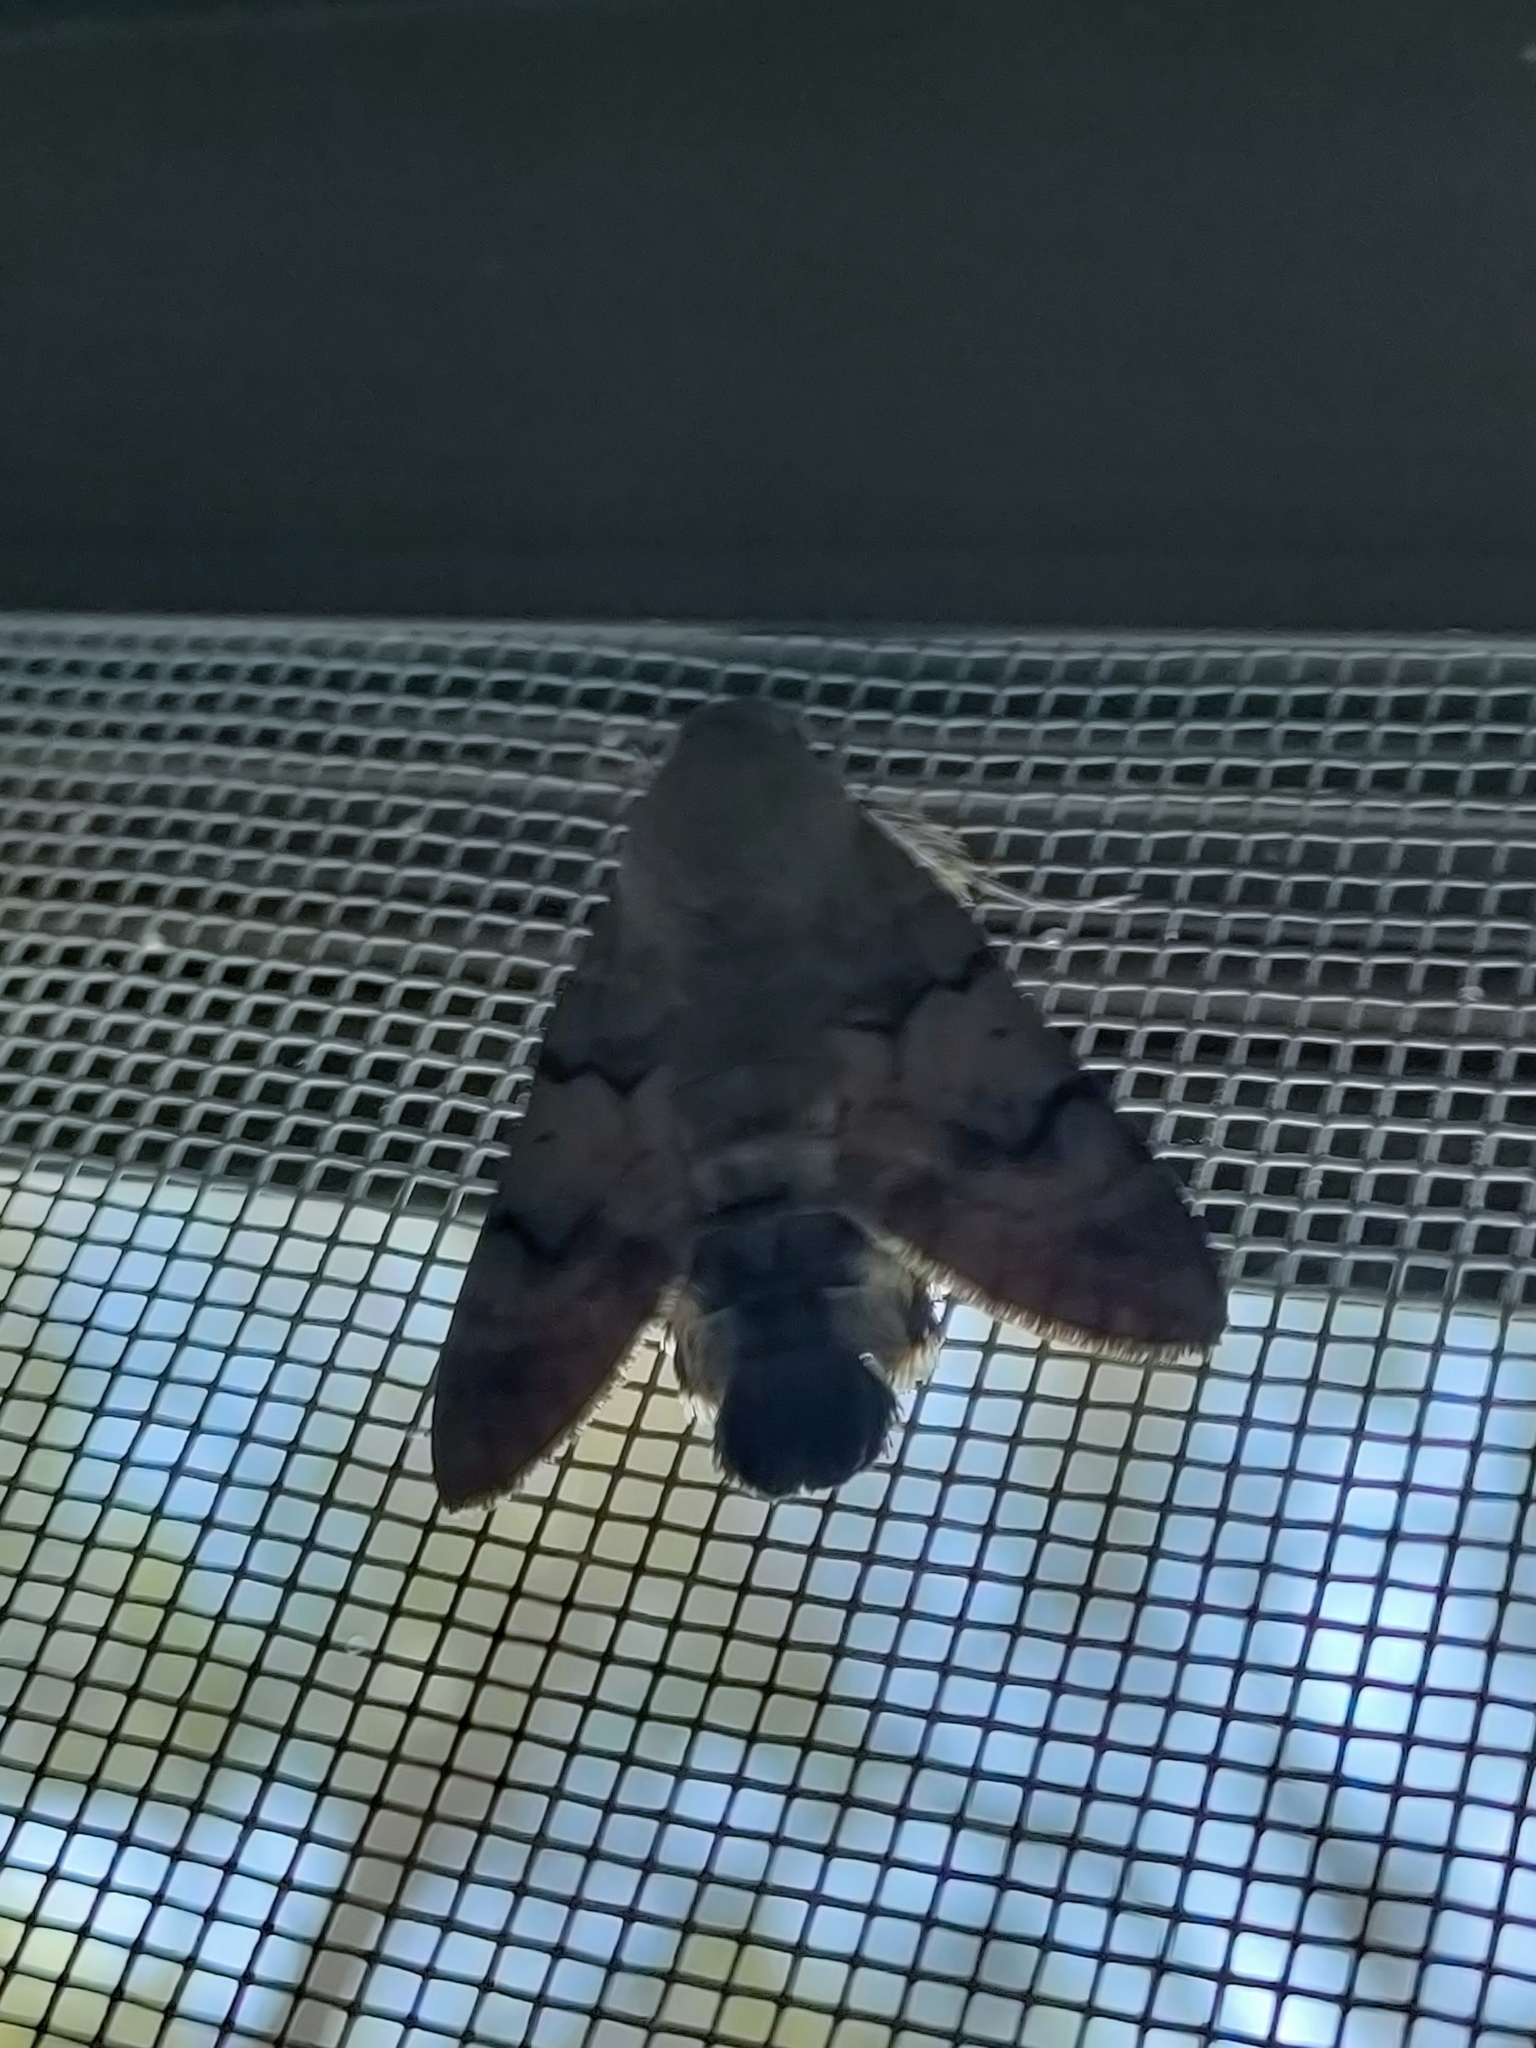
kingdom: Animalia
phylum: Arthropoda
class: Insecta
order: Lepidoptera
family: Sphingidae
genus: Macroglossum
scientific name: Macroglossum stellatarum
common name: Humming-bird hawk-moth
